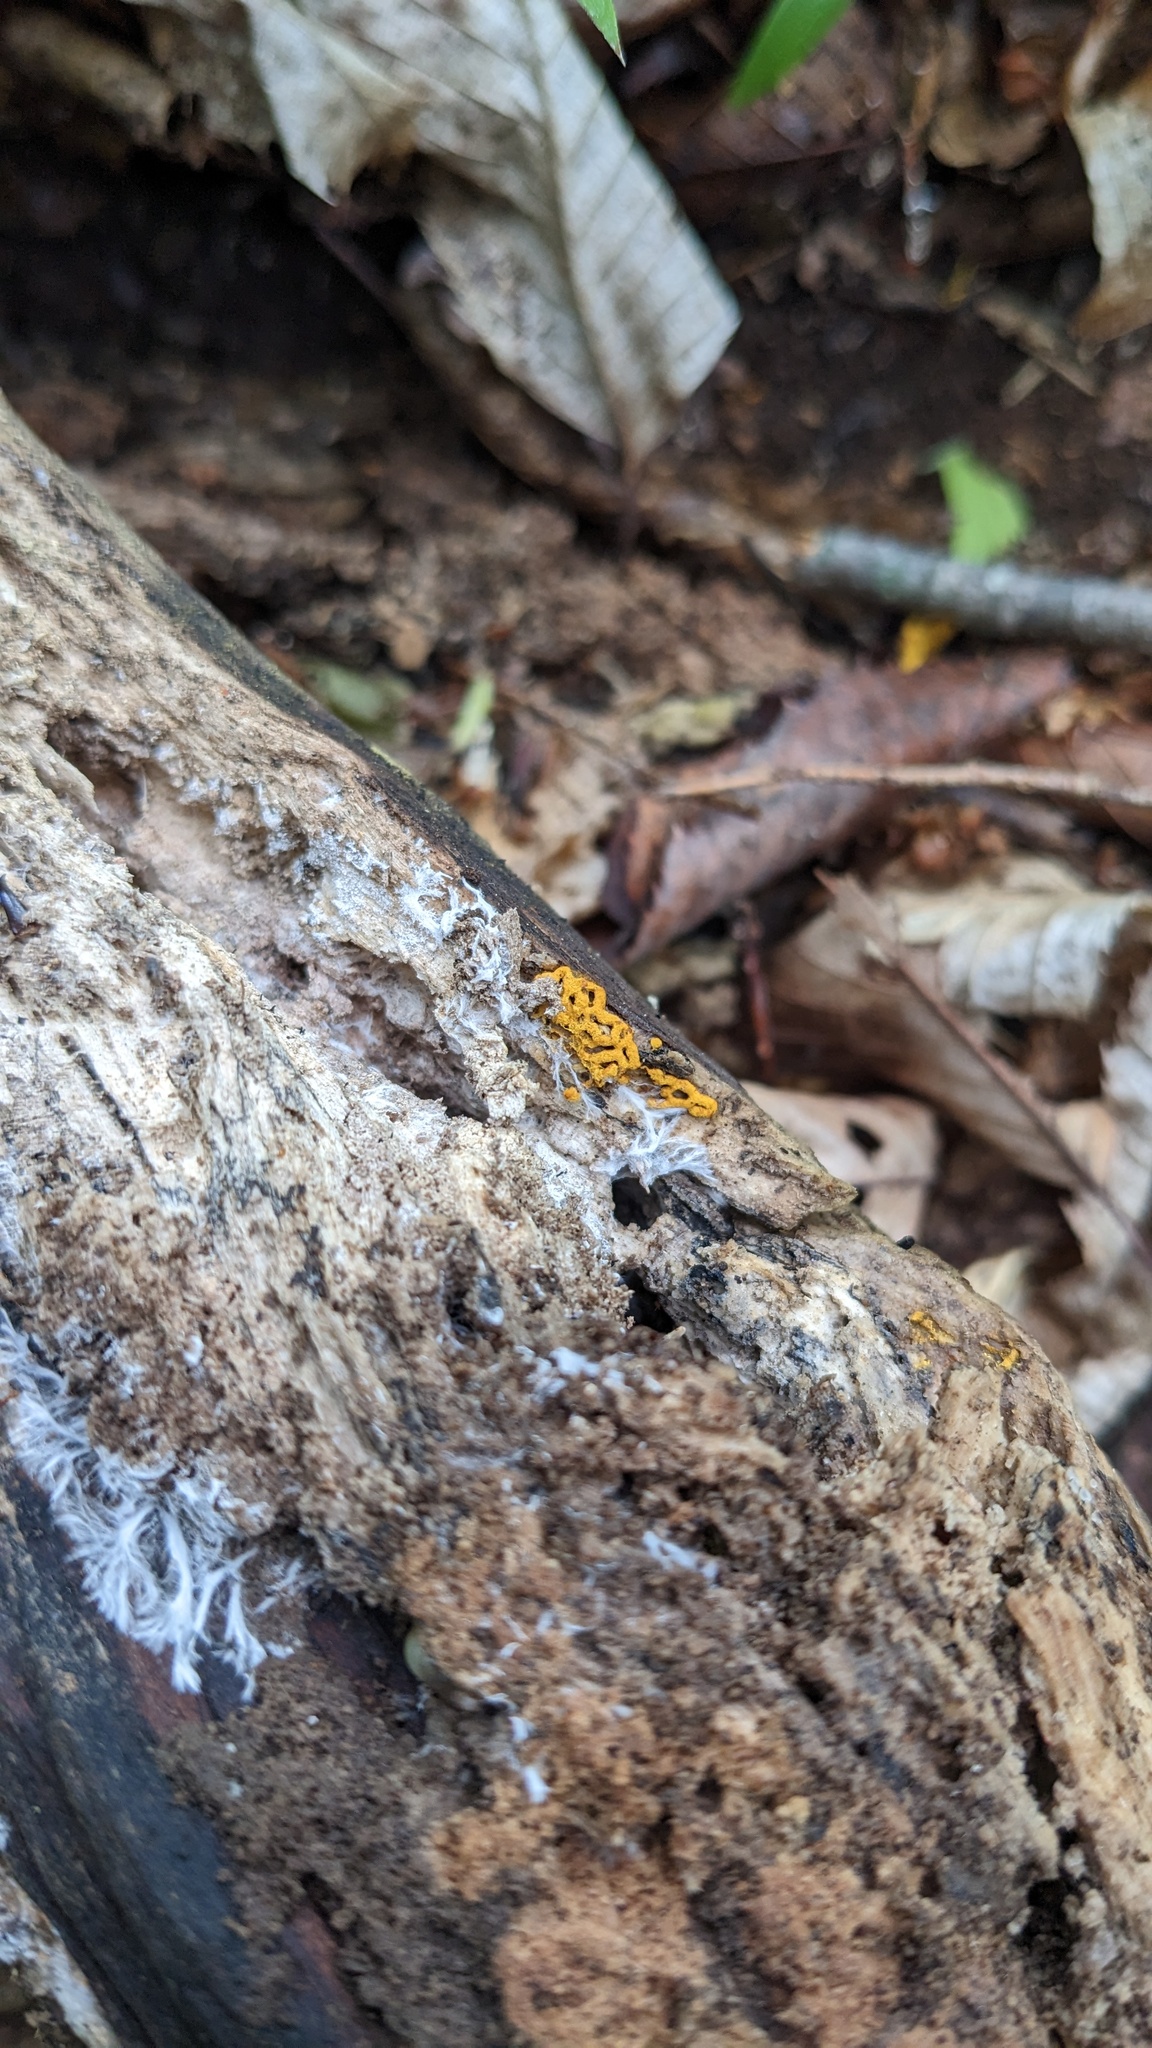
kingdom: Protozoa
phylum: Mycetozoa
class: Myxomycetes
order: Trichiales
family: Arcyriaceae
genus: Hemitrichia
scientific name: Hemitrichia serpula
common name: Pretzel slime mold
